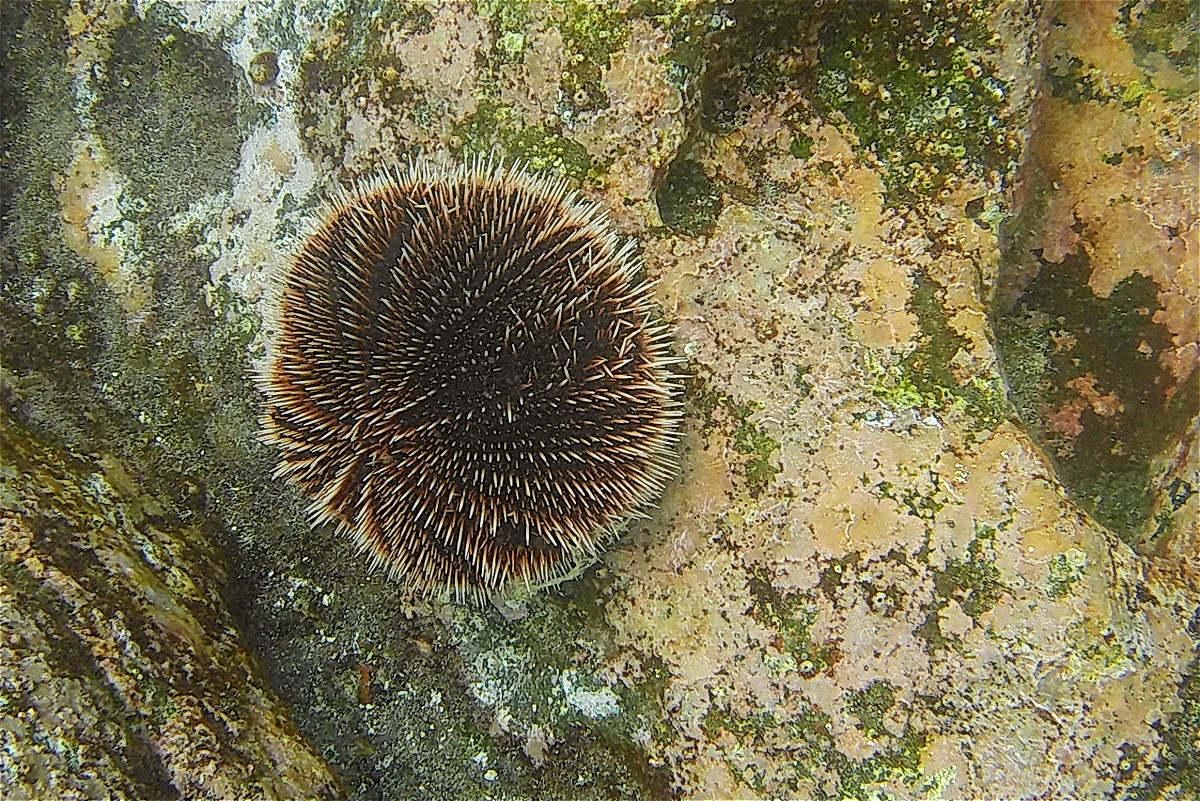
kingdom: Animalia
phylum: Echinodermata
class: Echinoidea
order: Camarodonta
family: Toxopneustidae
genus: Tripneustes
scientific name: Tripneustes depressus
